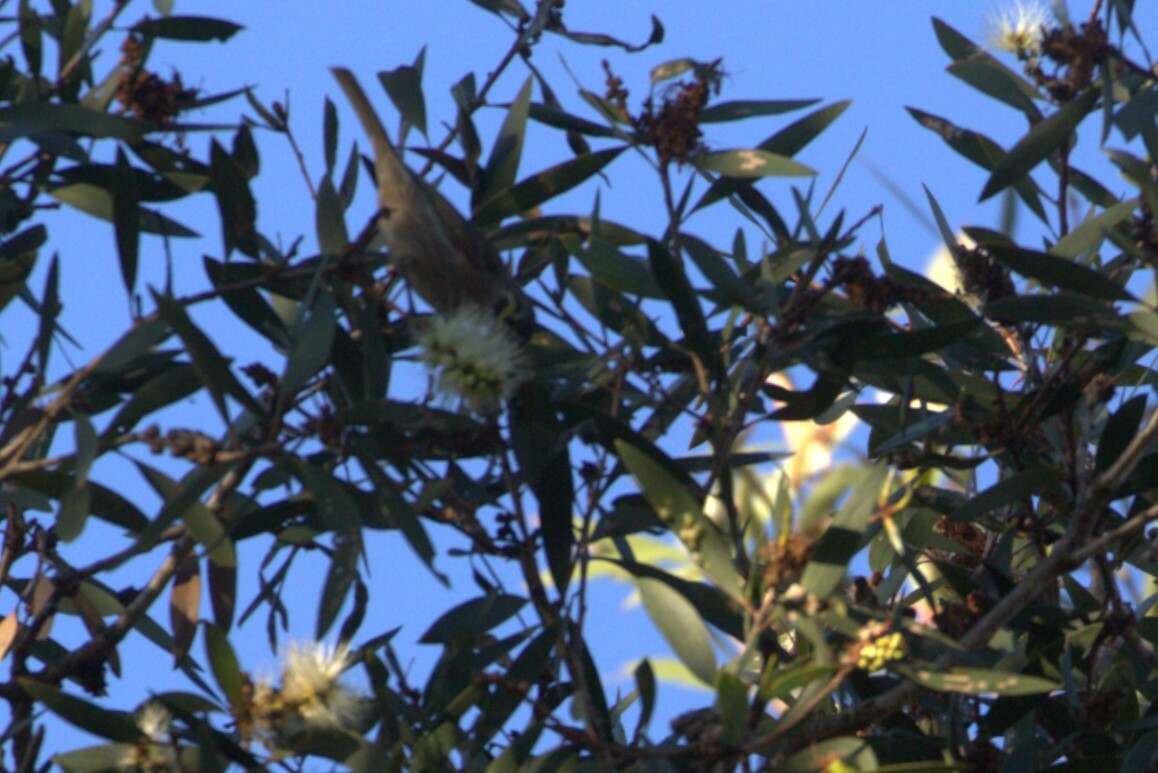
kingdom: Animalia
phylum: Chordata
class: Aves
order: Passeriformes
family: Meliphagidae
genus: Caligavis
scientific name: Caligavis chrysops
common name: Yellow-faced honeyeater
